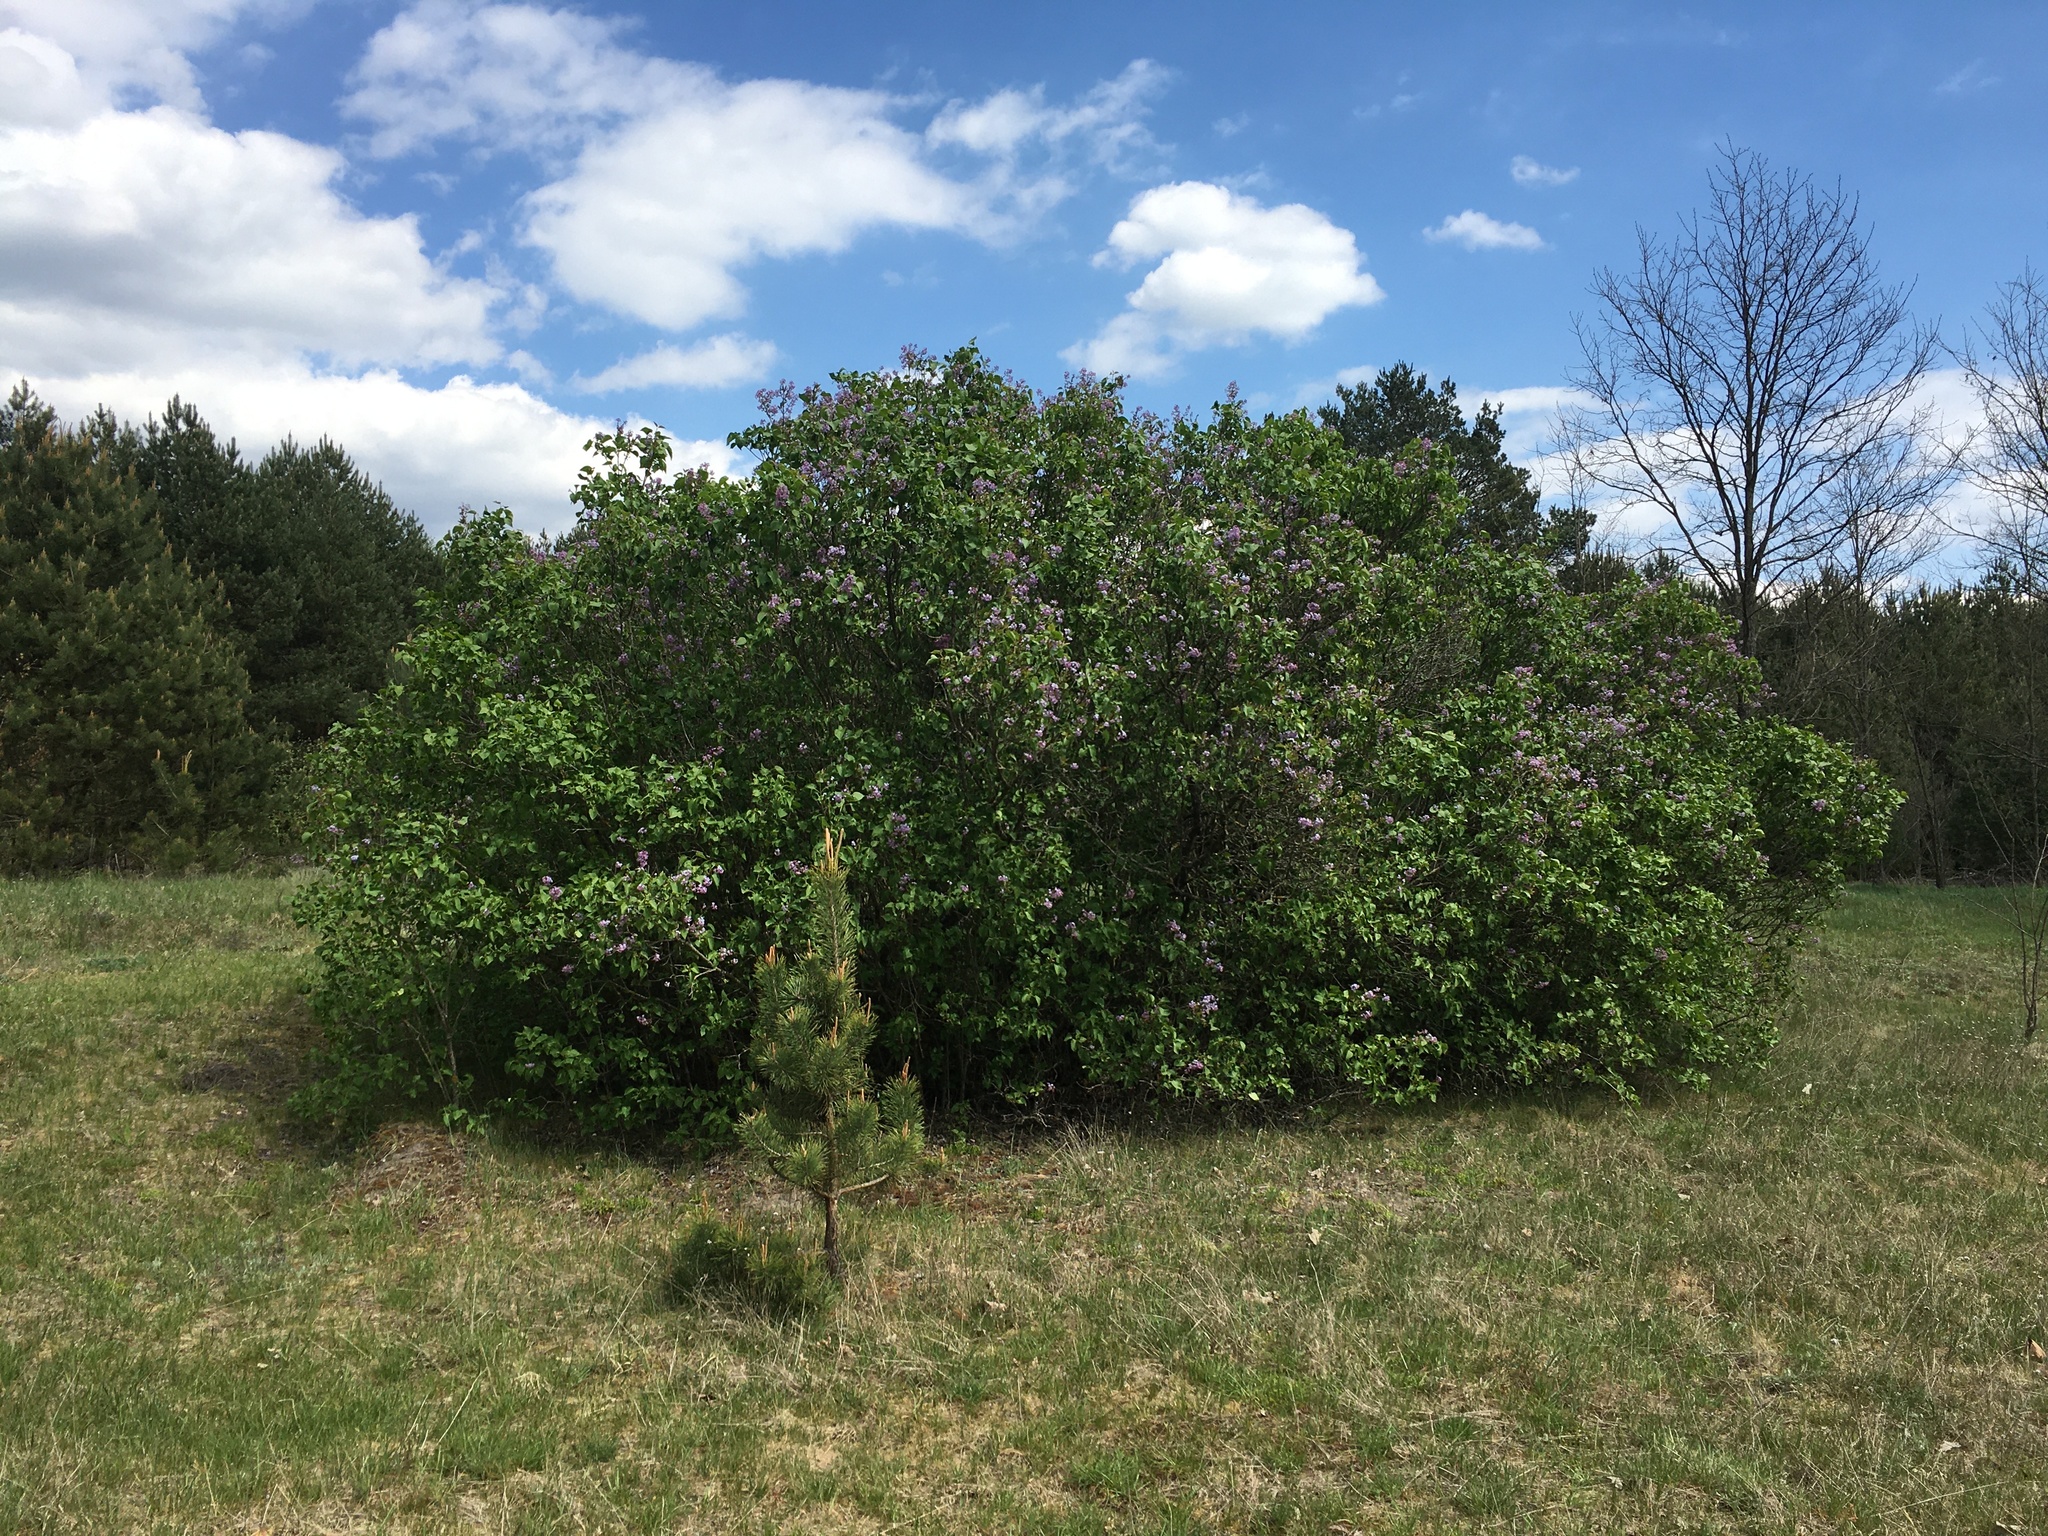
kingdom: Plantae
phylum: Tracheophyta
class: Magnoliopsida
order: Lamiales
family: Oleaceae
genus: Syringa
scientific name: Syringa vulgaris
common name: Common lilac
